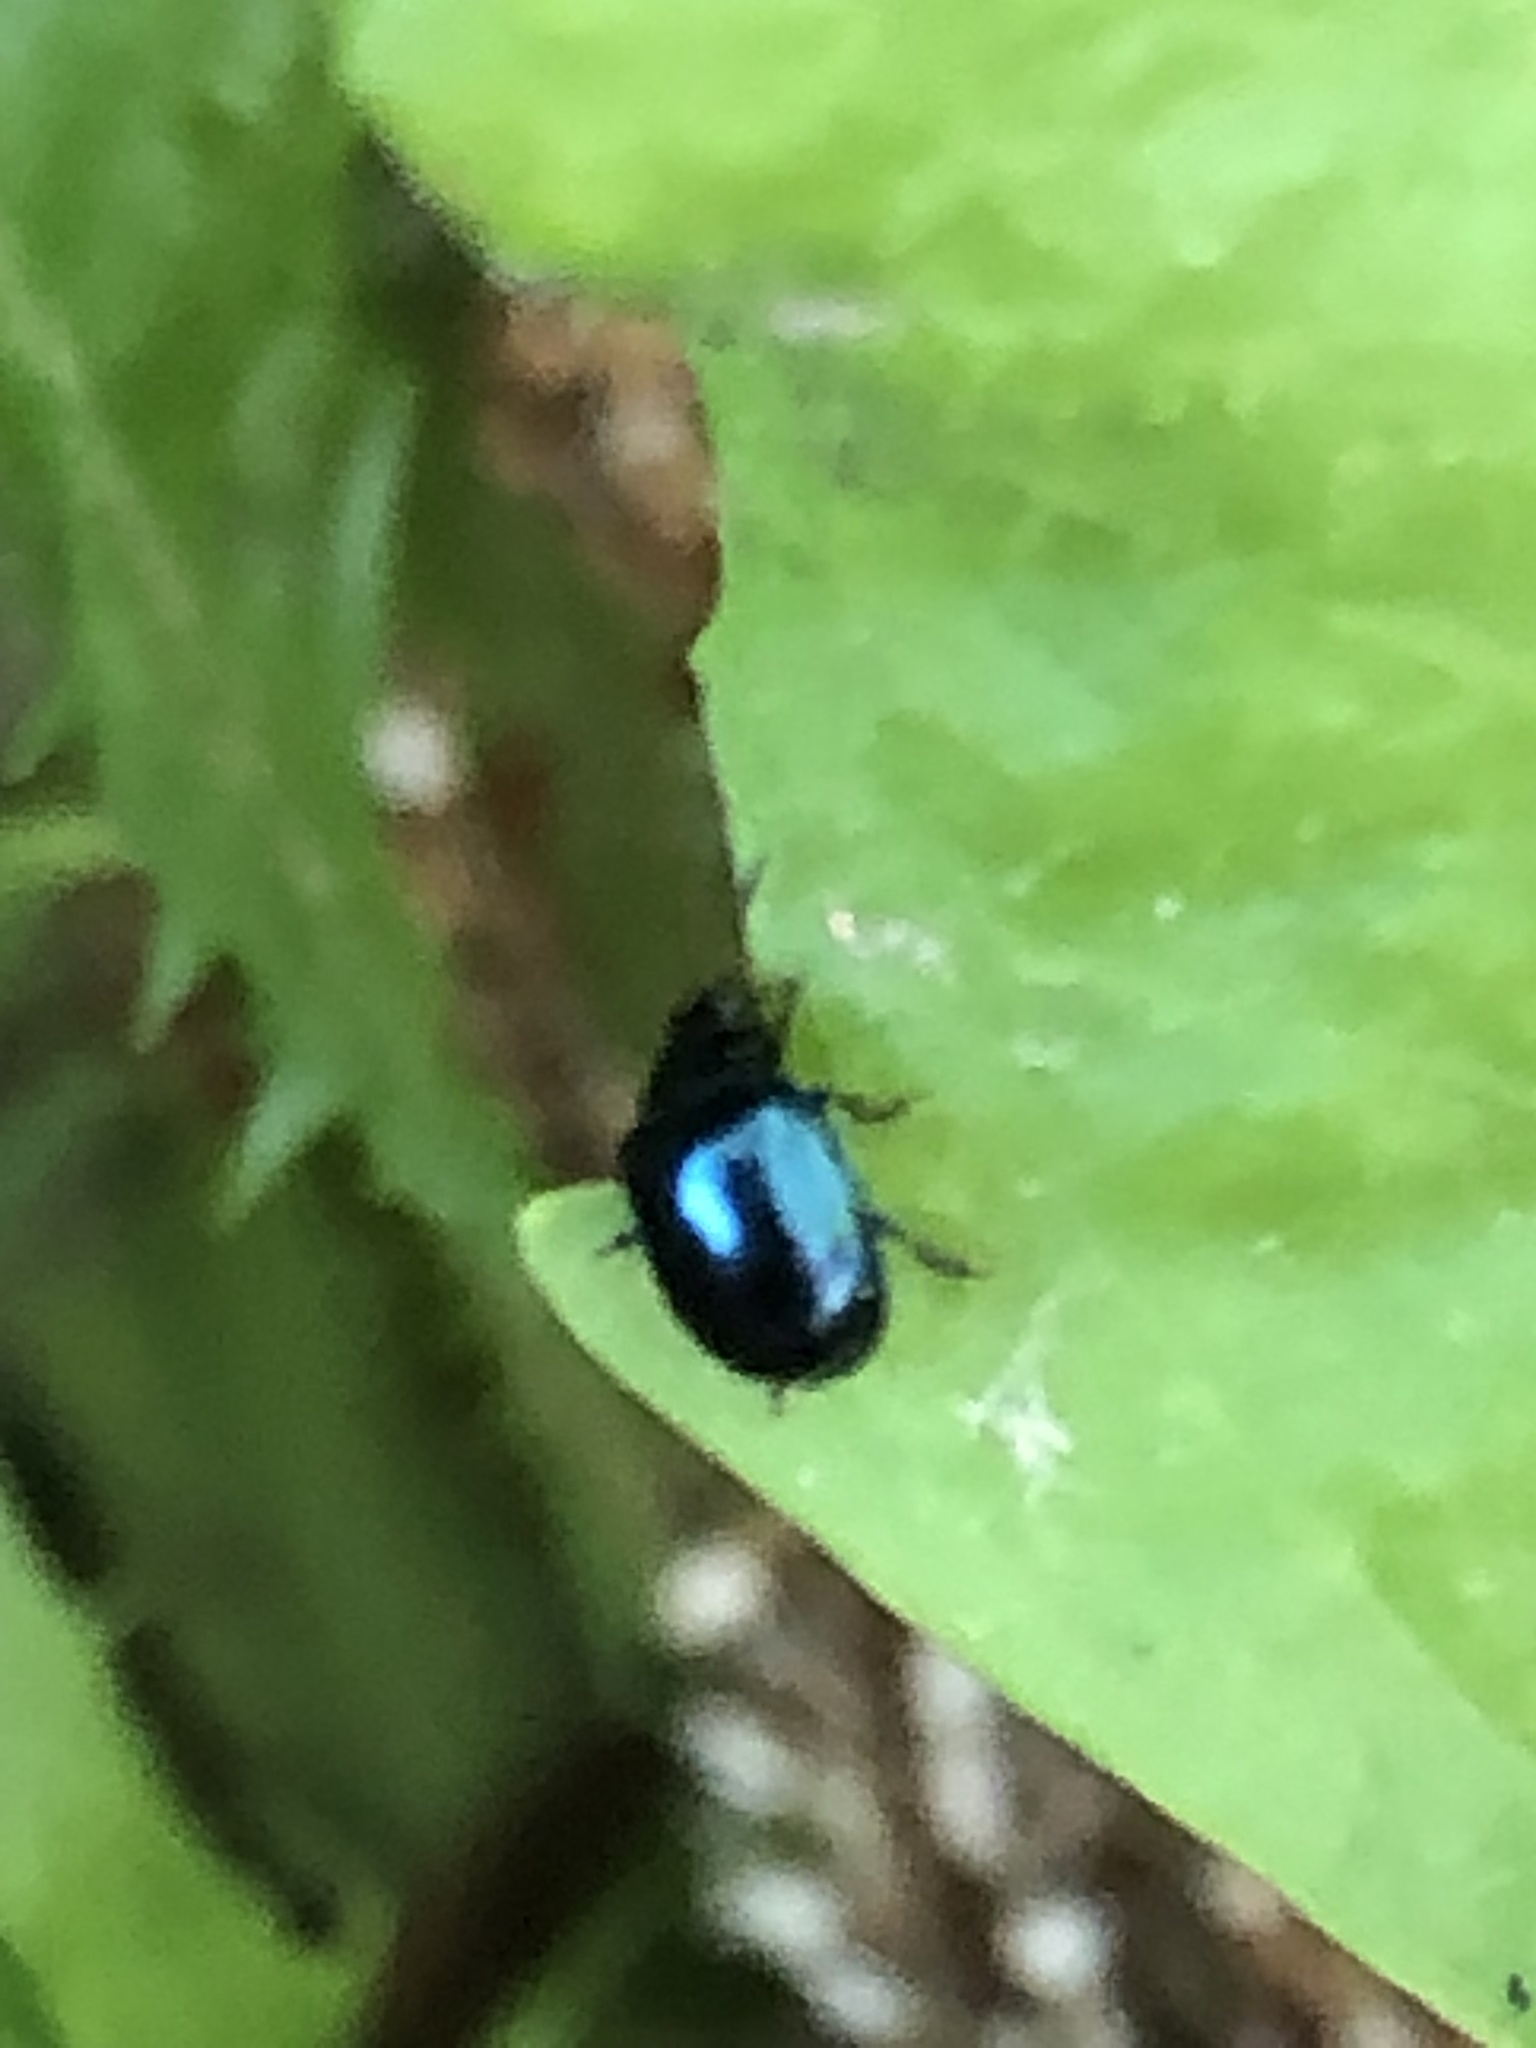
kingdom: Animalia
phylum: Arthropoda
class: Insecta
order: Coleoptera
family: Chrysomelidae
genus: Plagiodera
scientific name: Plagiodera versicolora
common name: Imported willow leaf beetle
